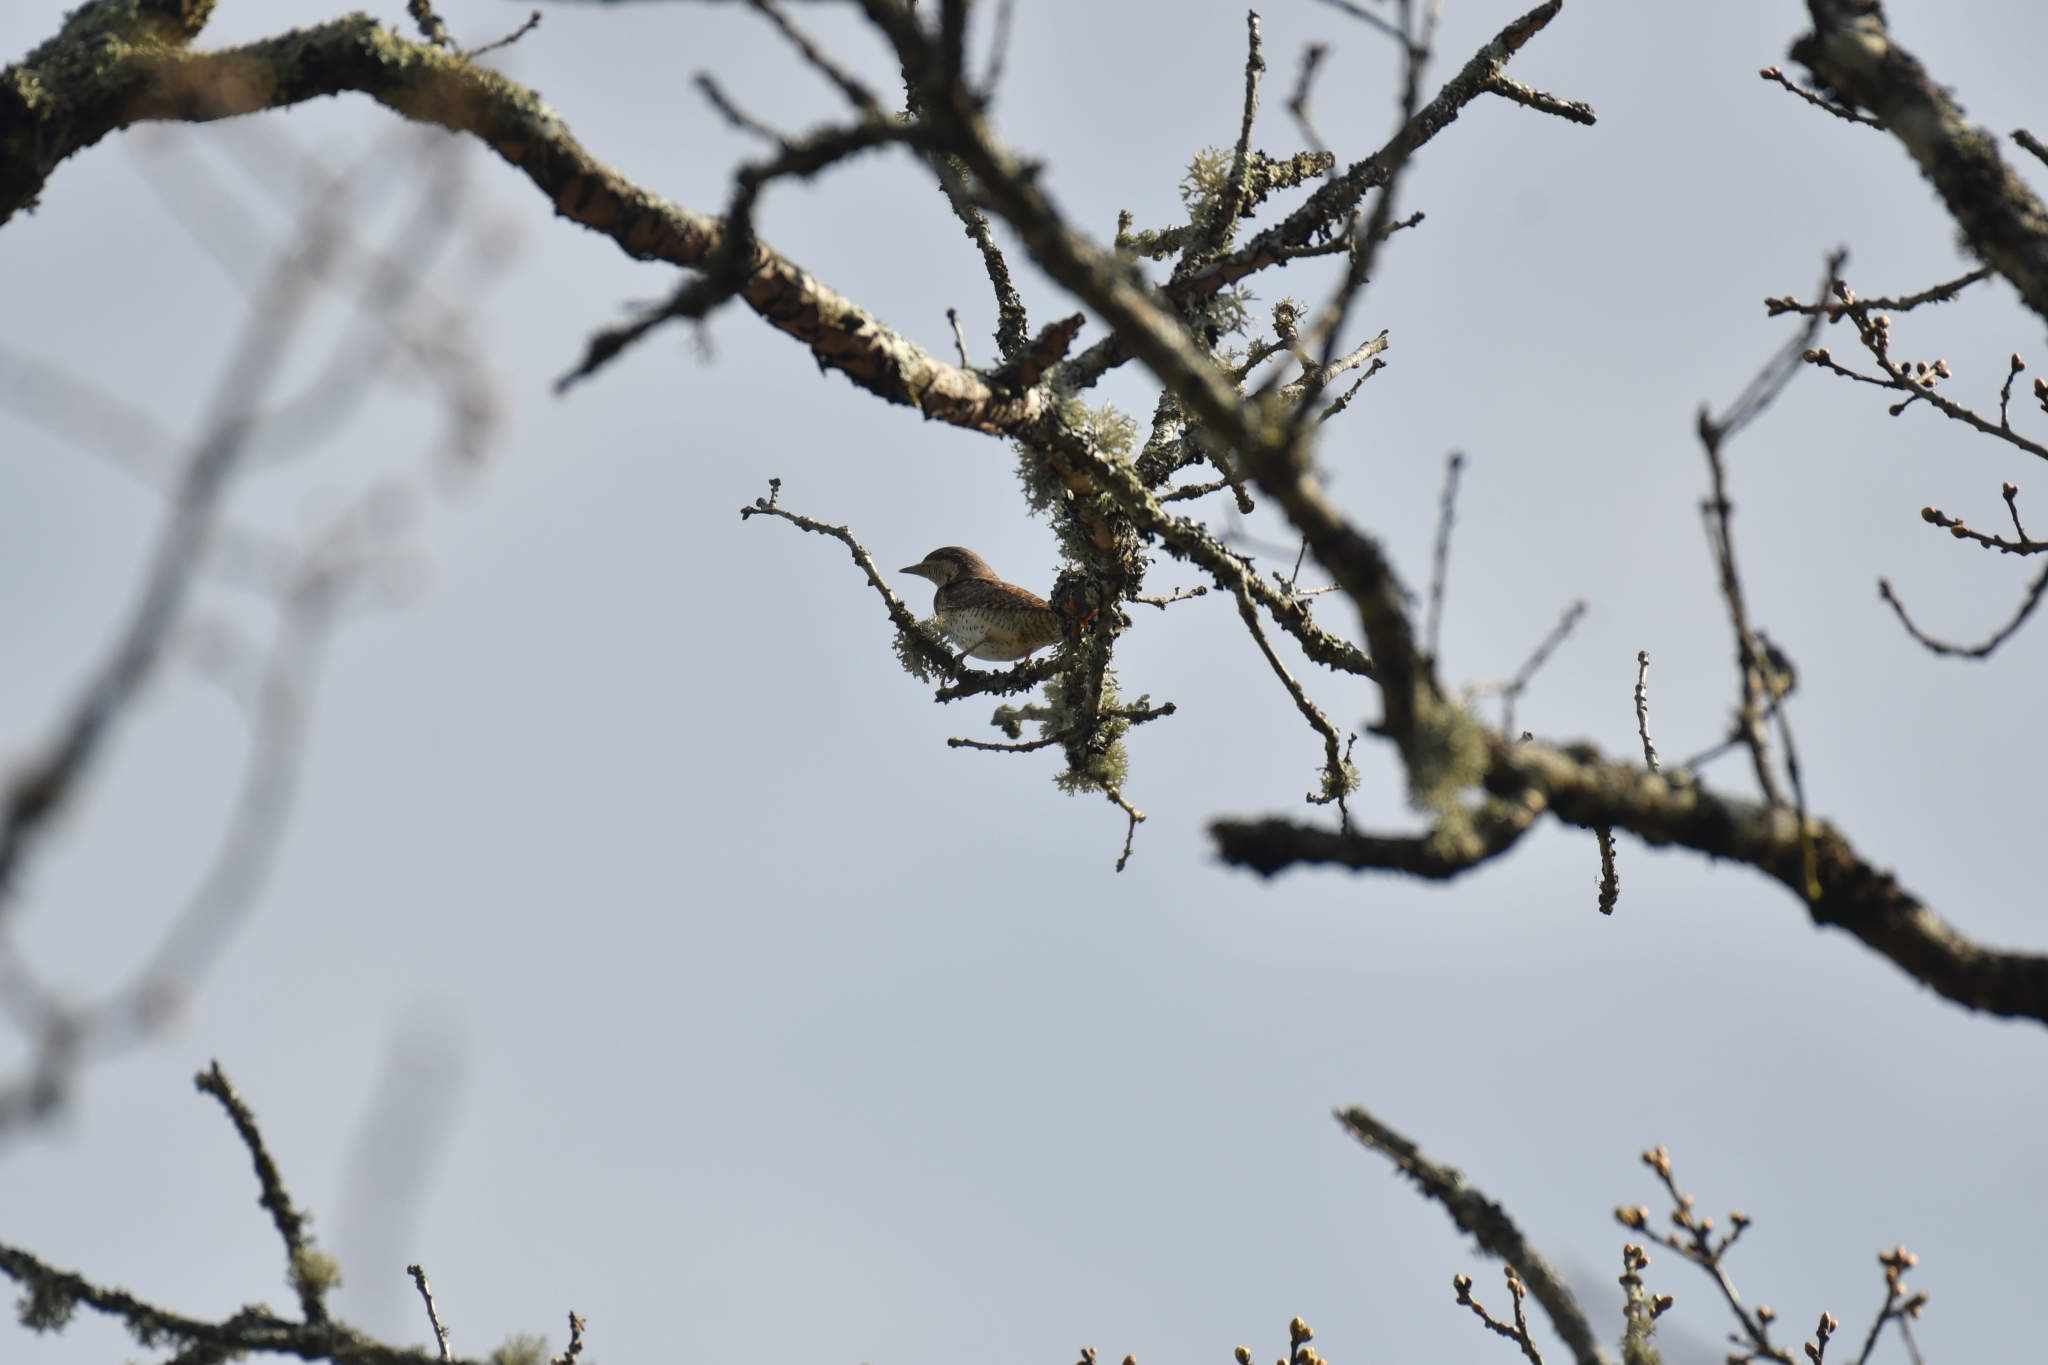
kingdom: Animalia
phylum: Chordata
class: Aves
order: Piciformes
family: Picidae
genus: Jynx
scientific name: Jynx torquilla
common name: Eurasian wryneck
